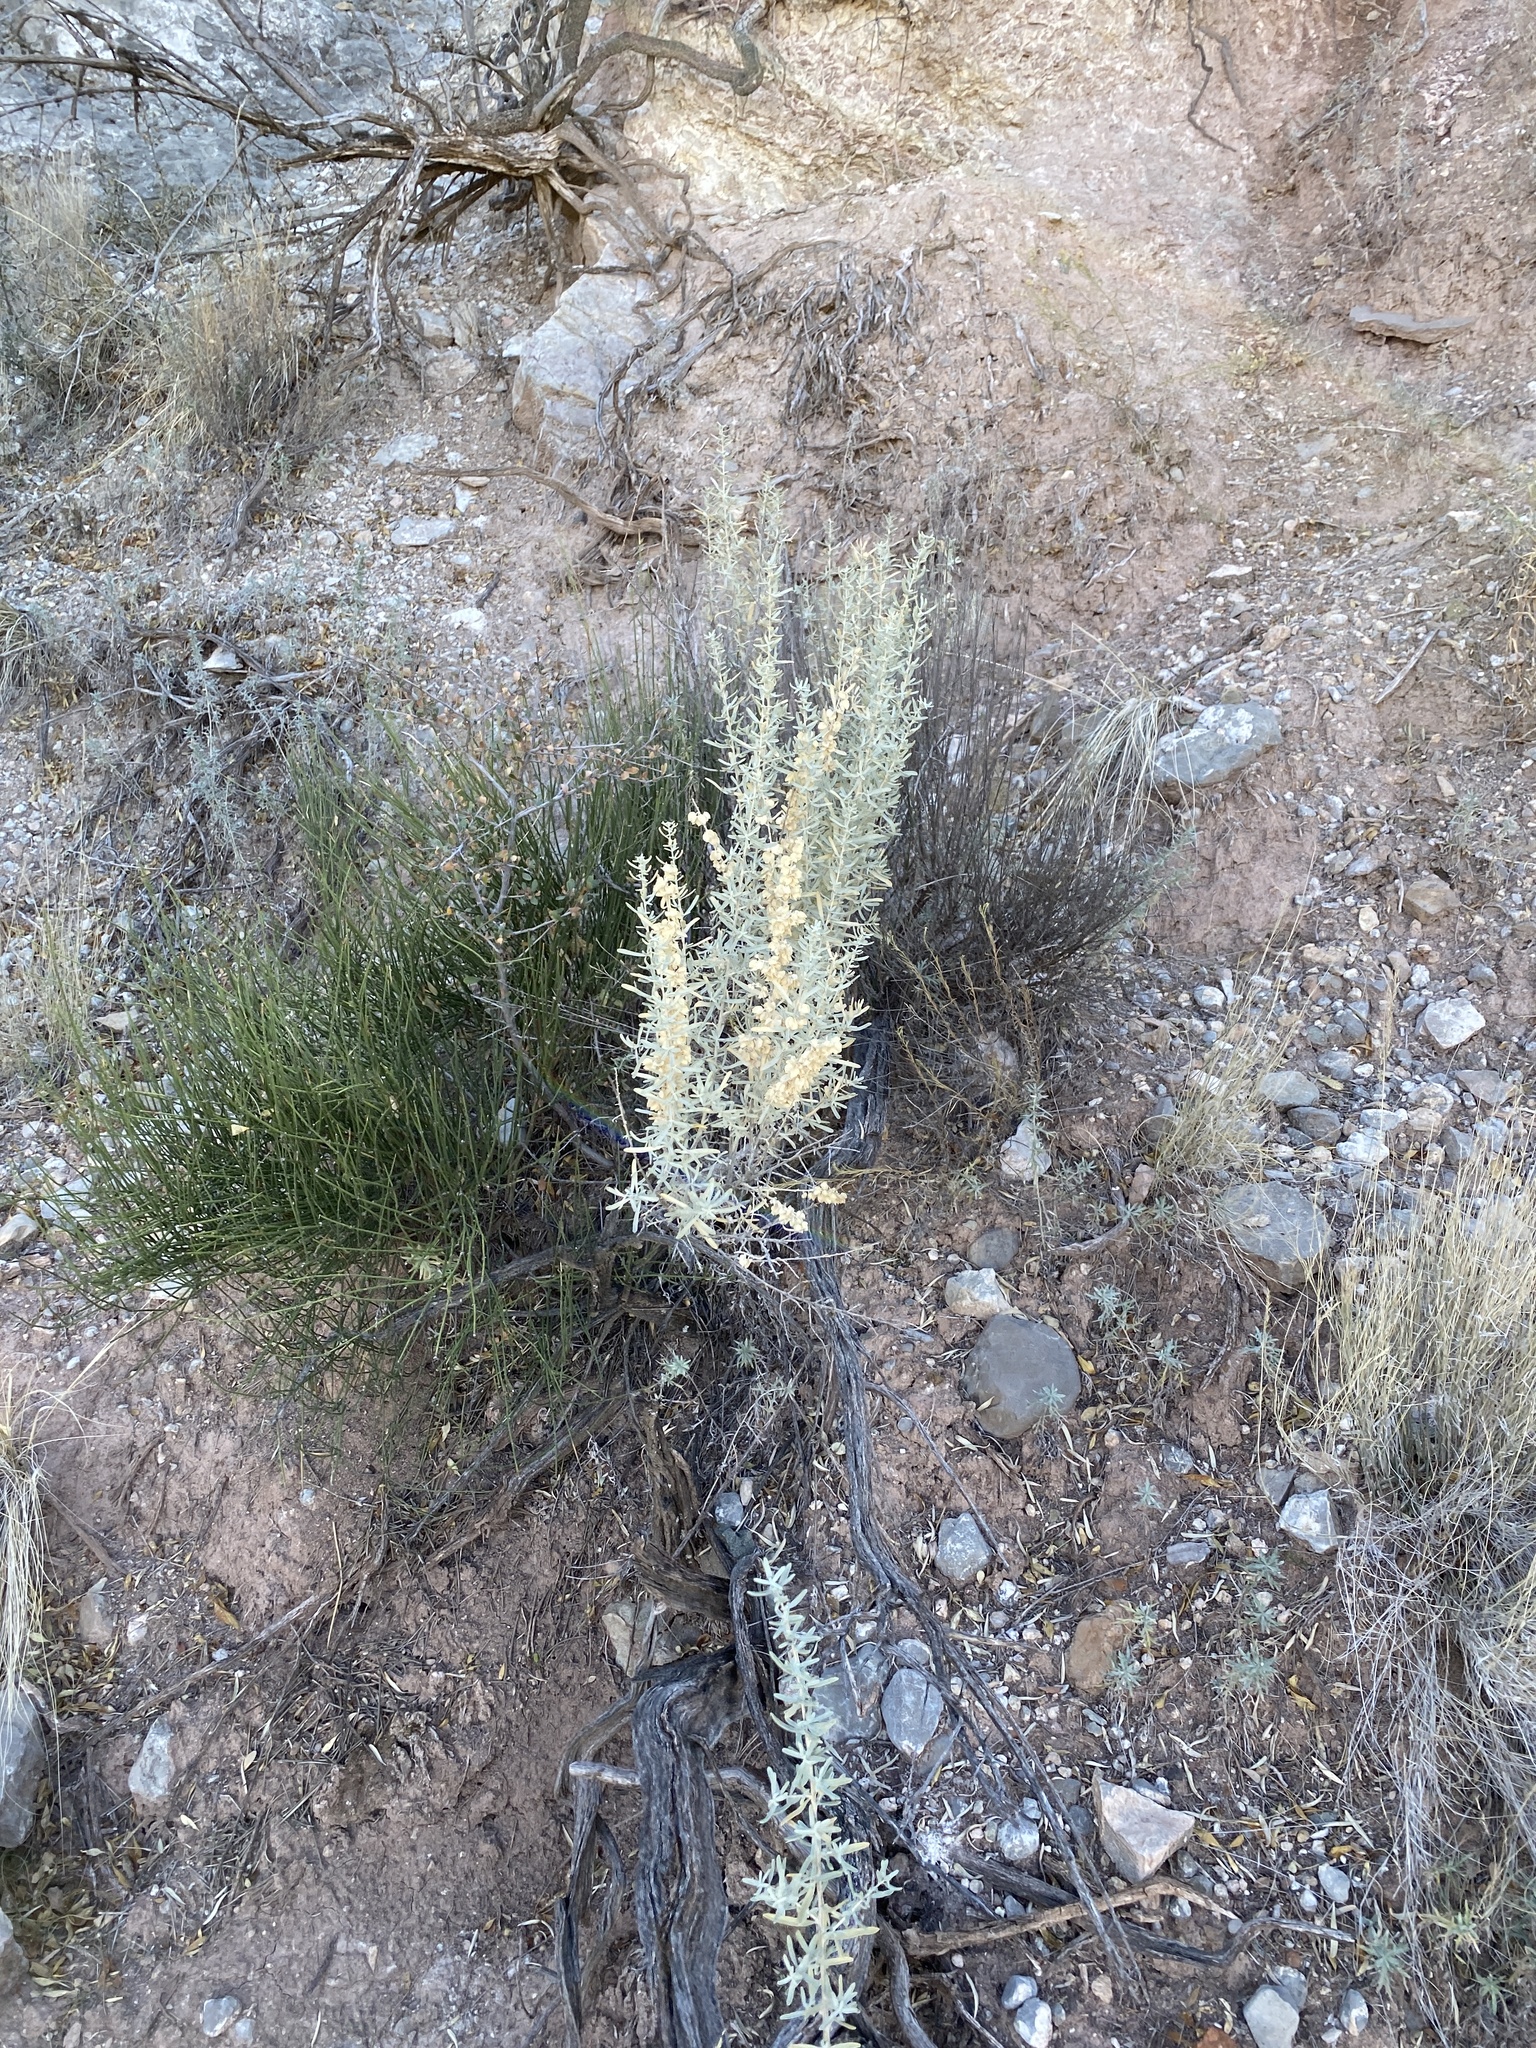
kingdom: Plantae
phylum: Tracheophyta
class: Magnoliopsida
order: Caryophyllales
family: Amaranthaceae
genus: Atriplex
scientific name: Atriplex canescens
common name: Four-wing saltbush
